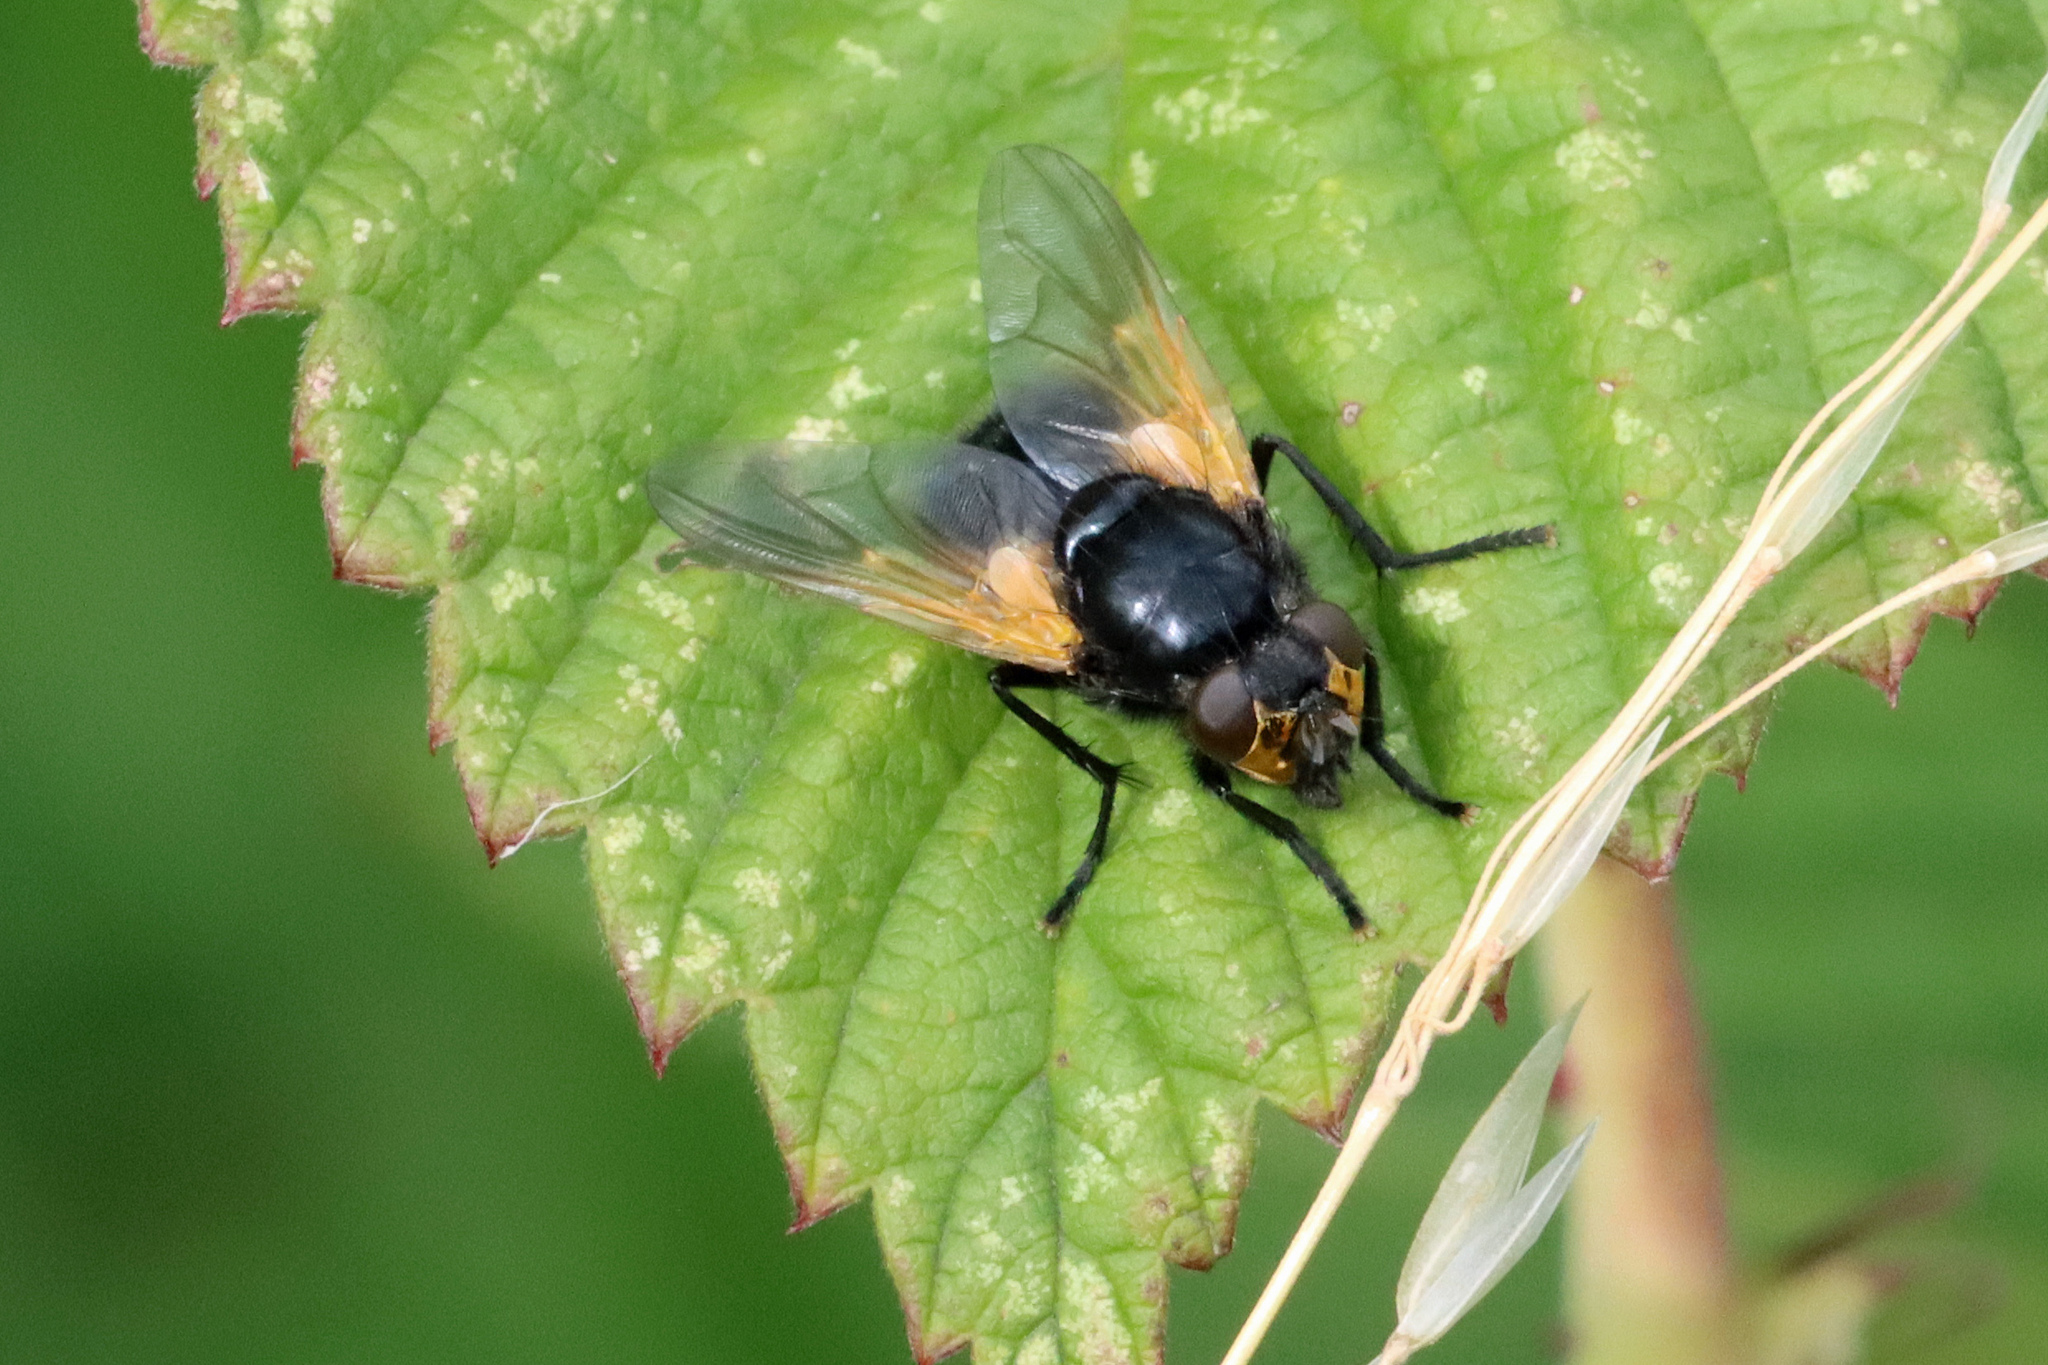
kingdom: Animalia
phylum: Arthropoda
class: Insecta
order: Diptera
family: Muscidae
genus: Mesembrina
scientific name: Mesembrina meridiana
